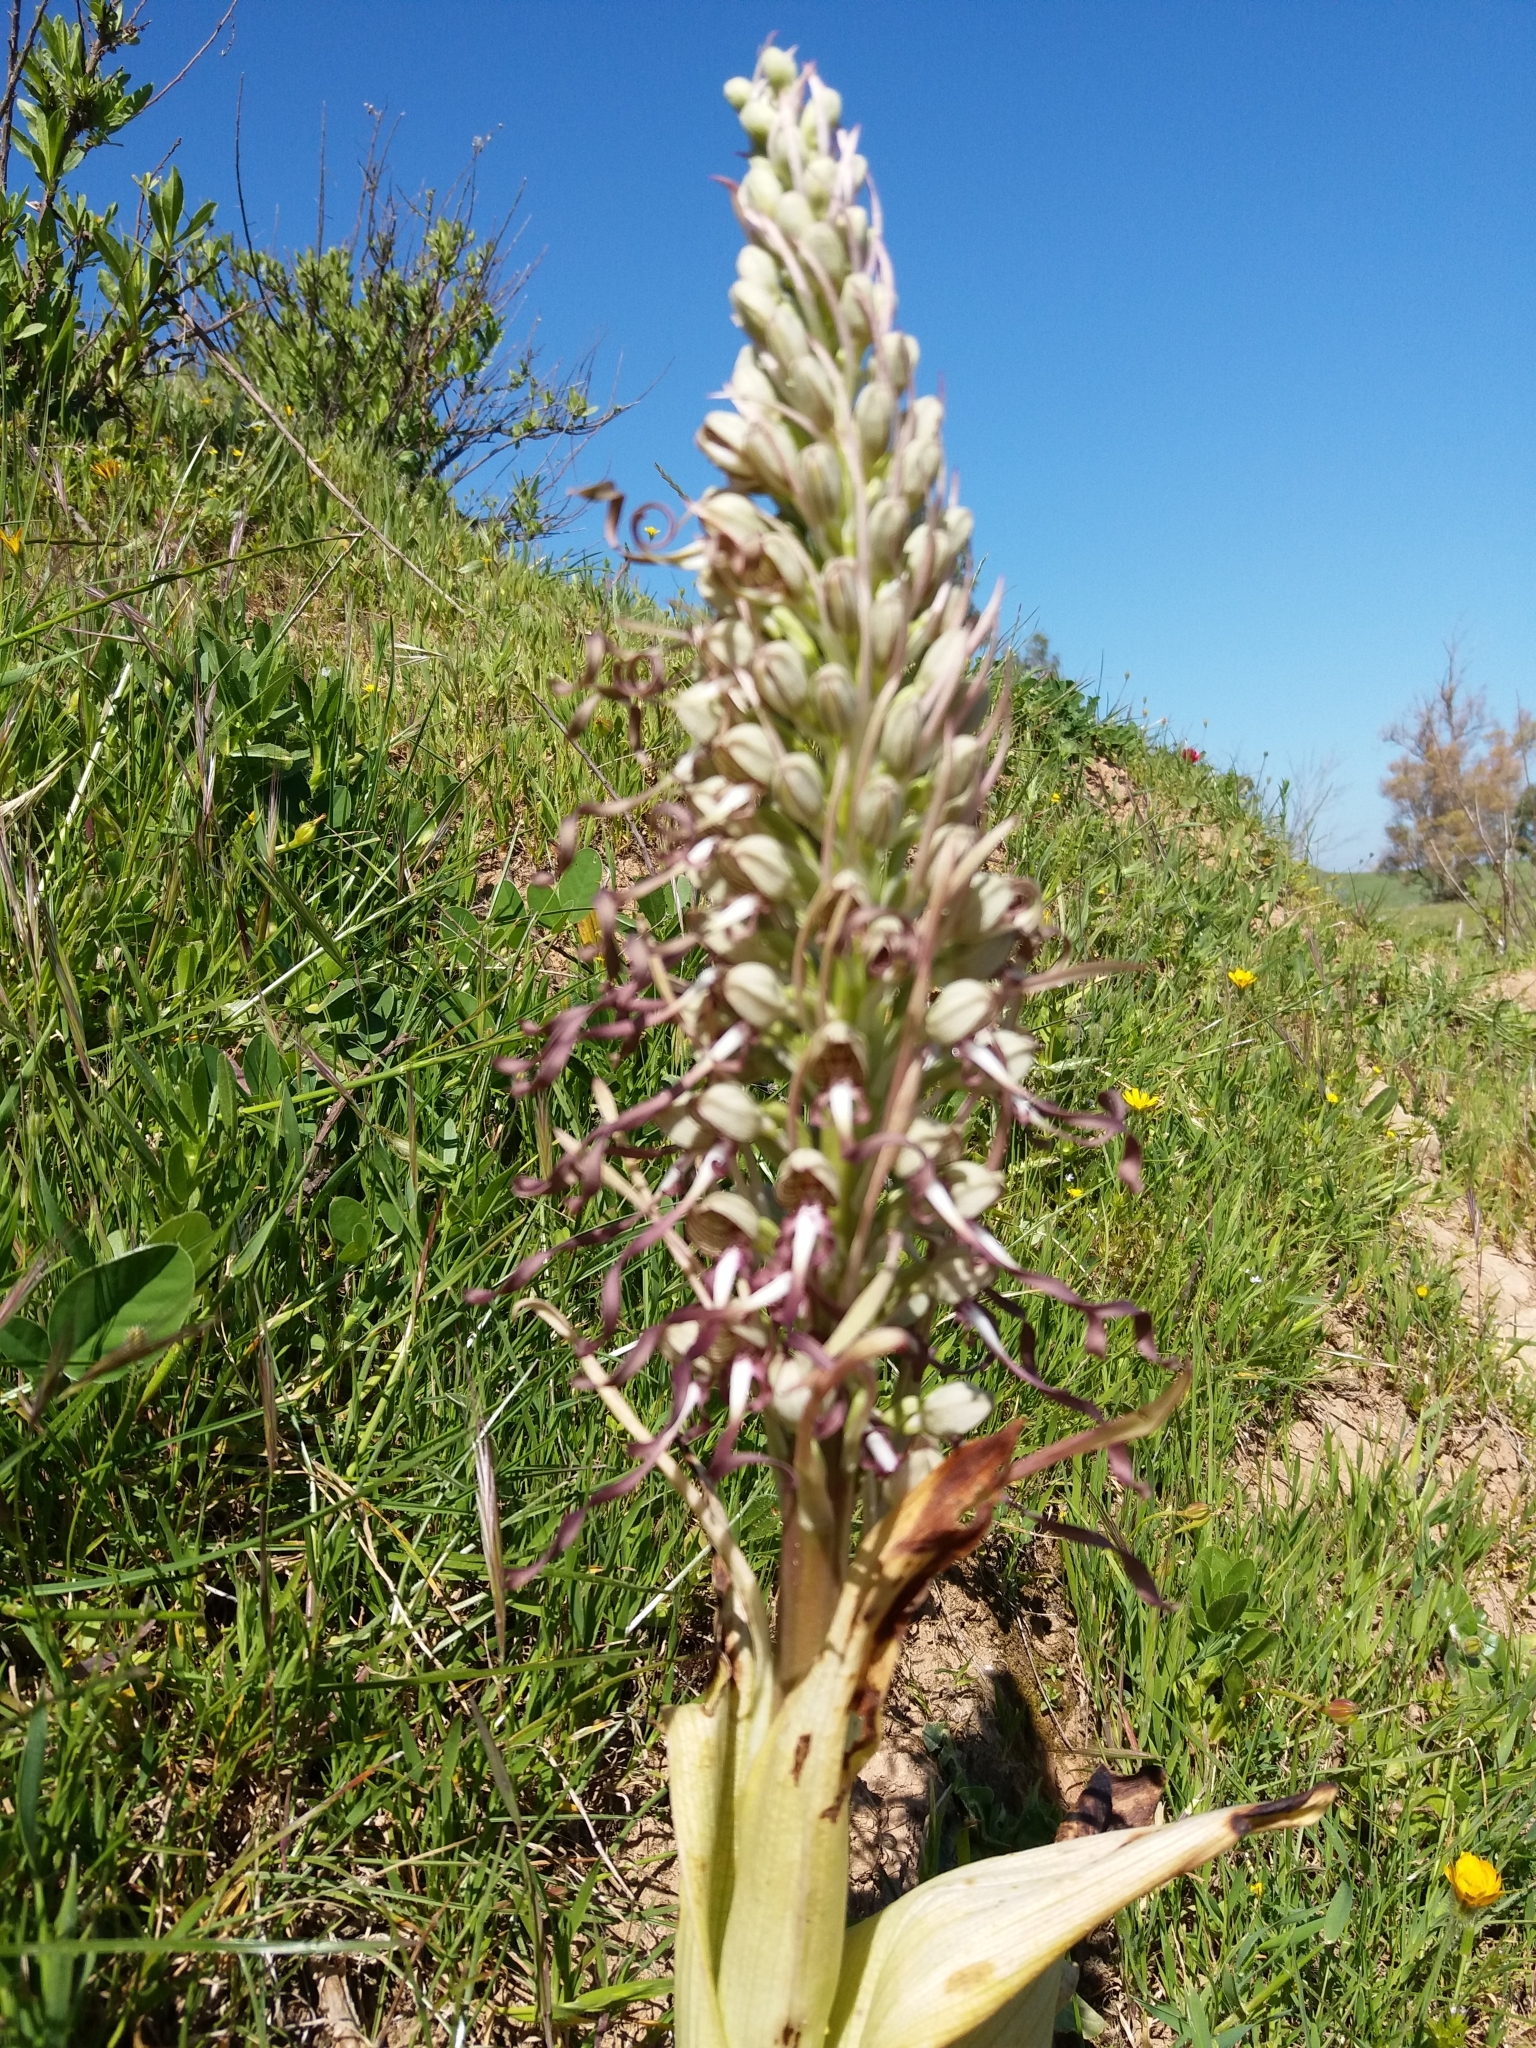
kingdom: Plantae
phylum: Tracheophyta
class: Liliopsida
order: Asparagales
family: Orchidaceae
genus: Himantoglossum
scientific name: Himantoglossum hircinum
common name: Lizard orchid
